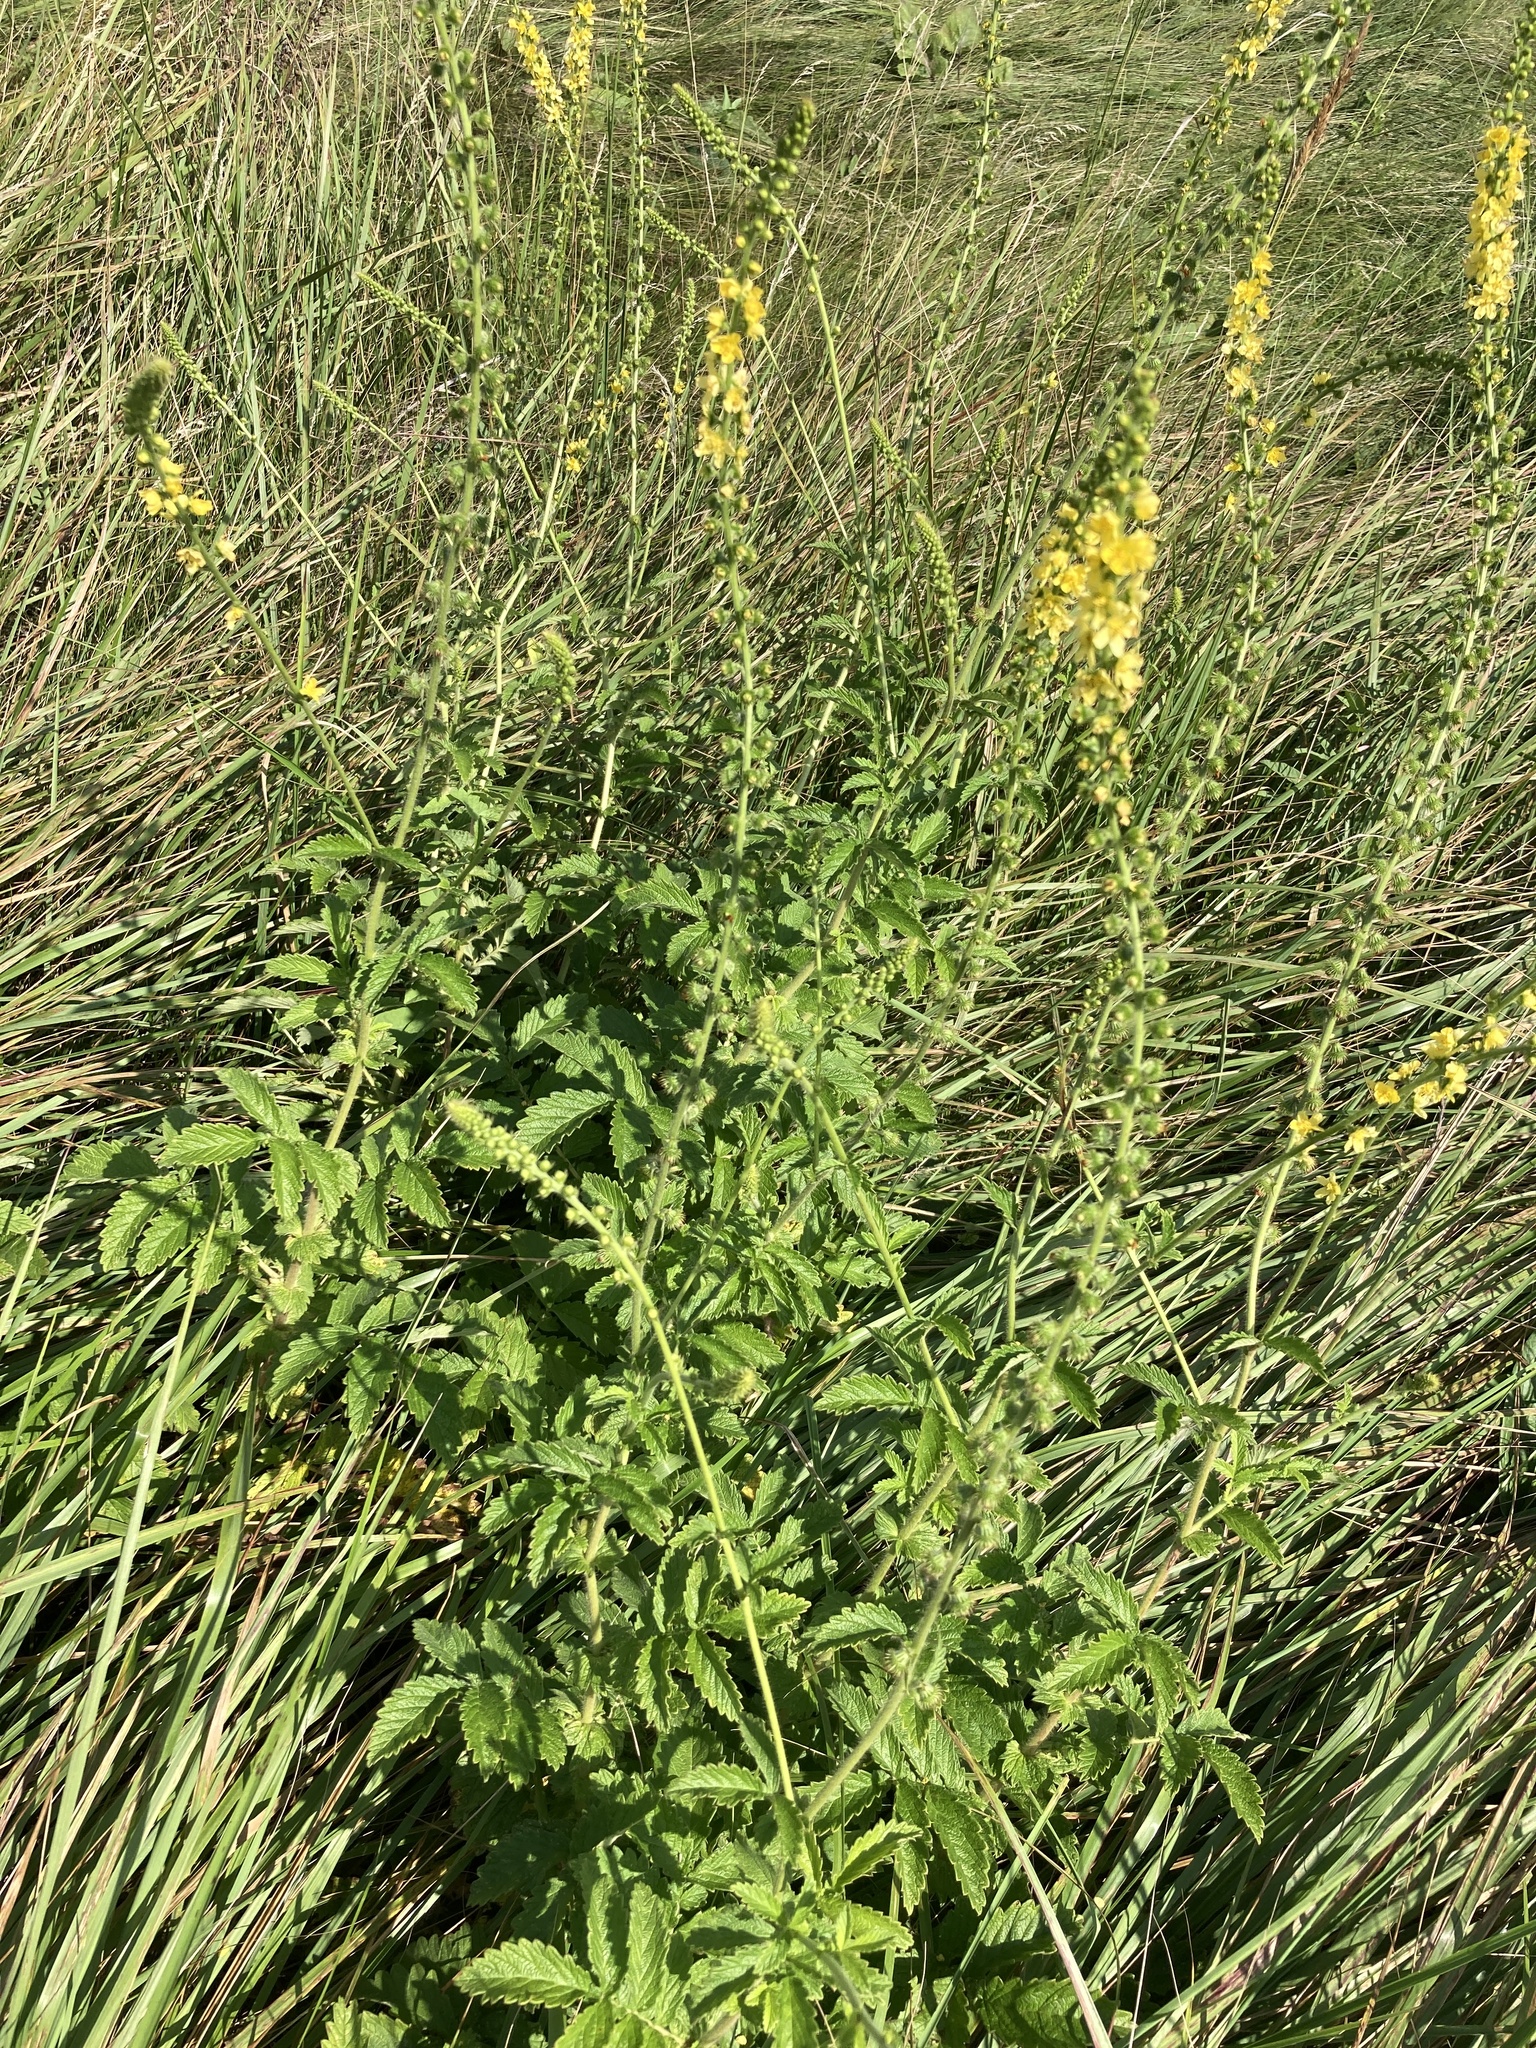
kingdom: Plantae
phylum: Tracheophyta
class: Magnoliopsida
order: Rosales
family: Rosaceae
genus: Agrimonia
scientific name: Agrimonia eupatoria
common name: Agrimony
